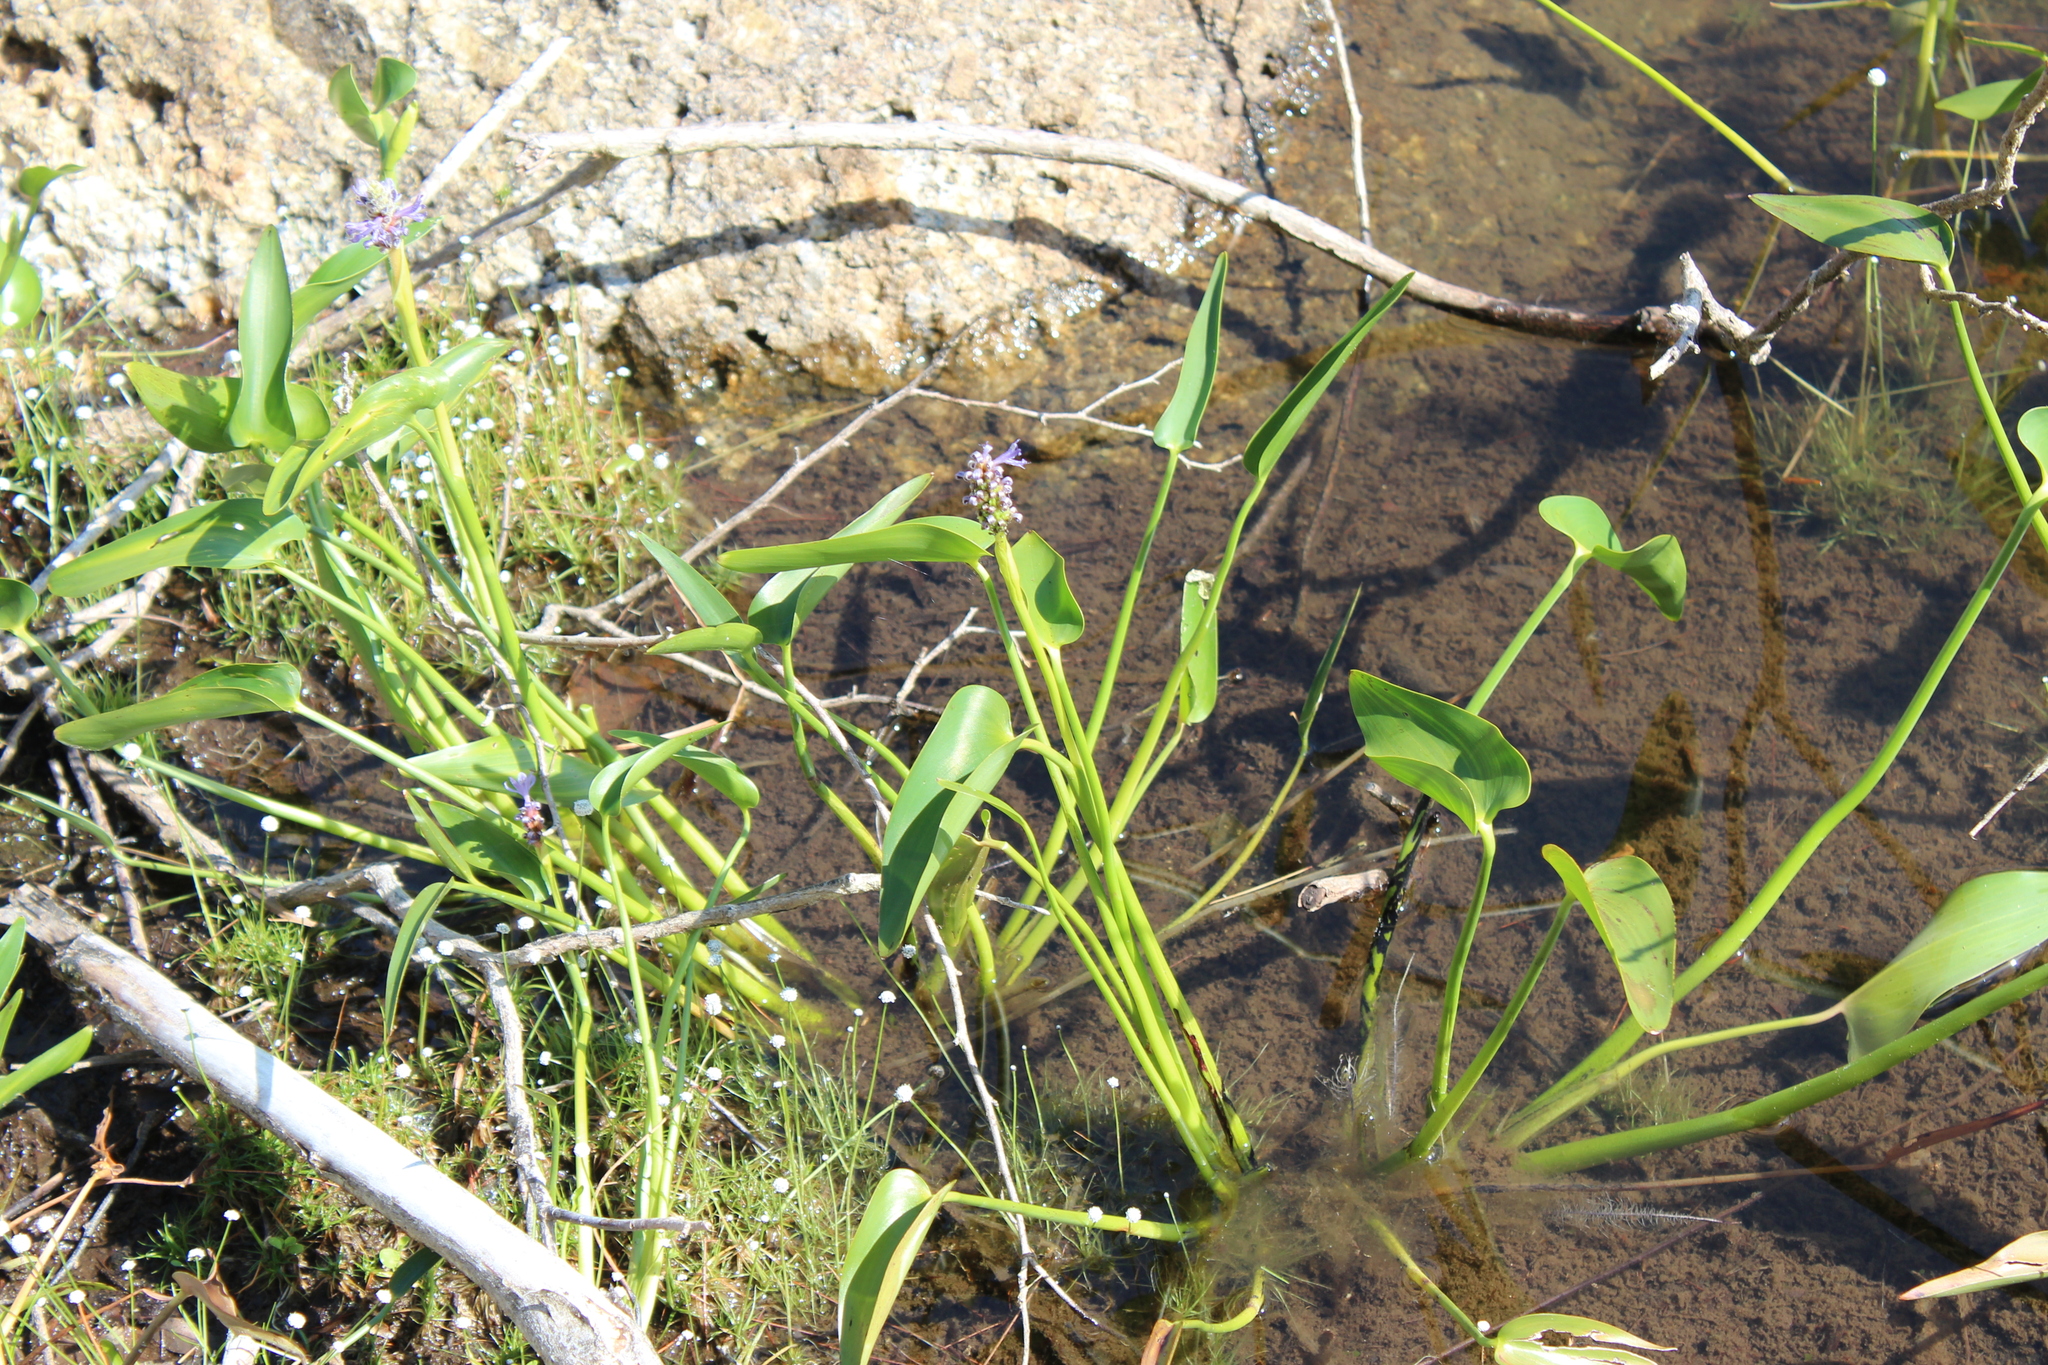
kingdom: Plantae
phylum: Tracheophyta
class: Liliopsida
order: Commelinales
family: Pontederiaceae
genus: Pontederia
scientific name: Pontederia cordata
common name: Pickerelweed
